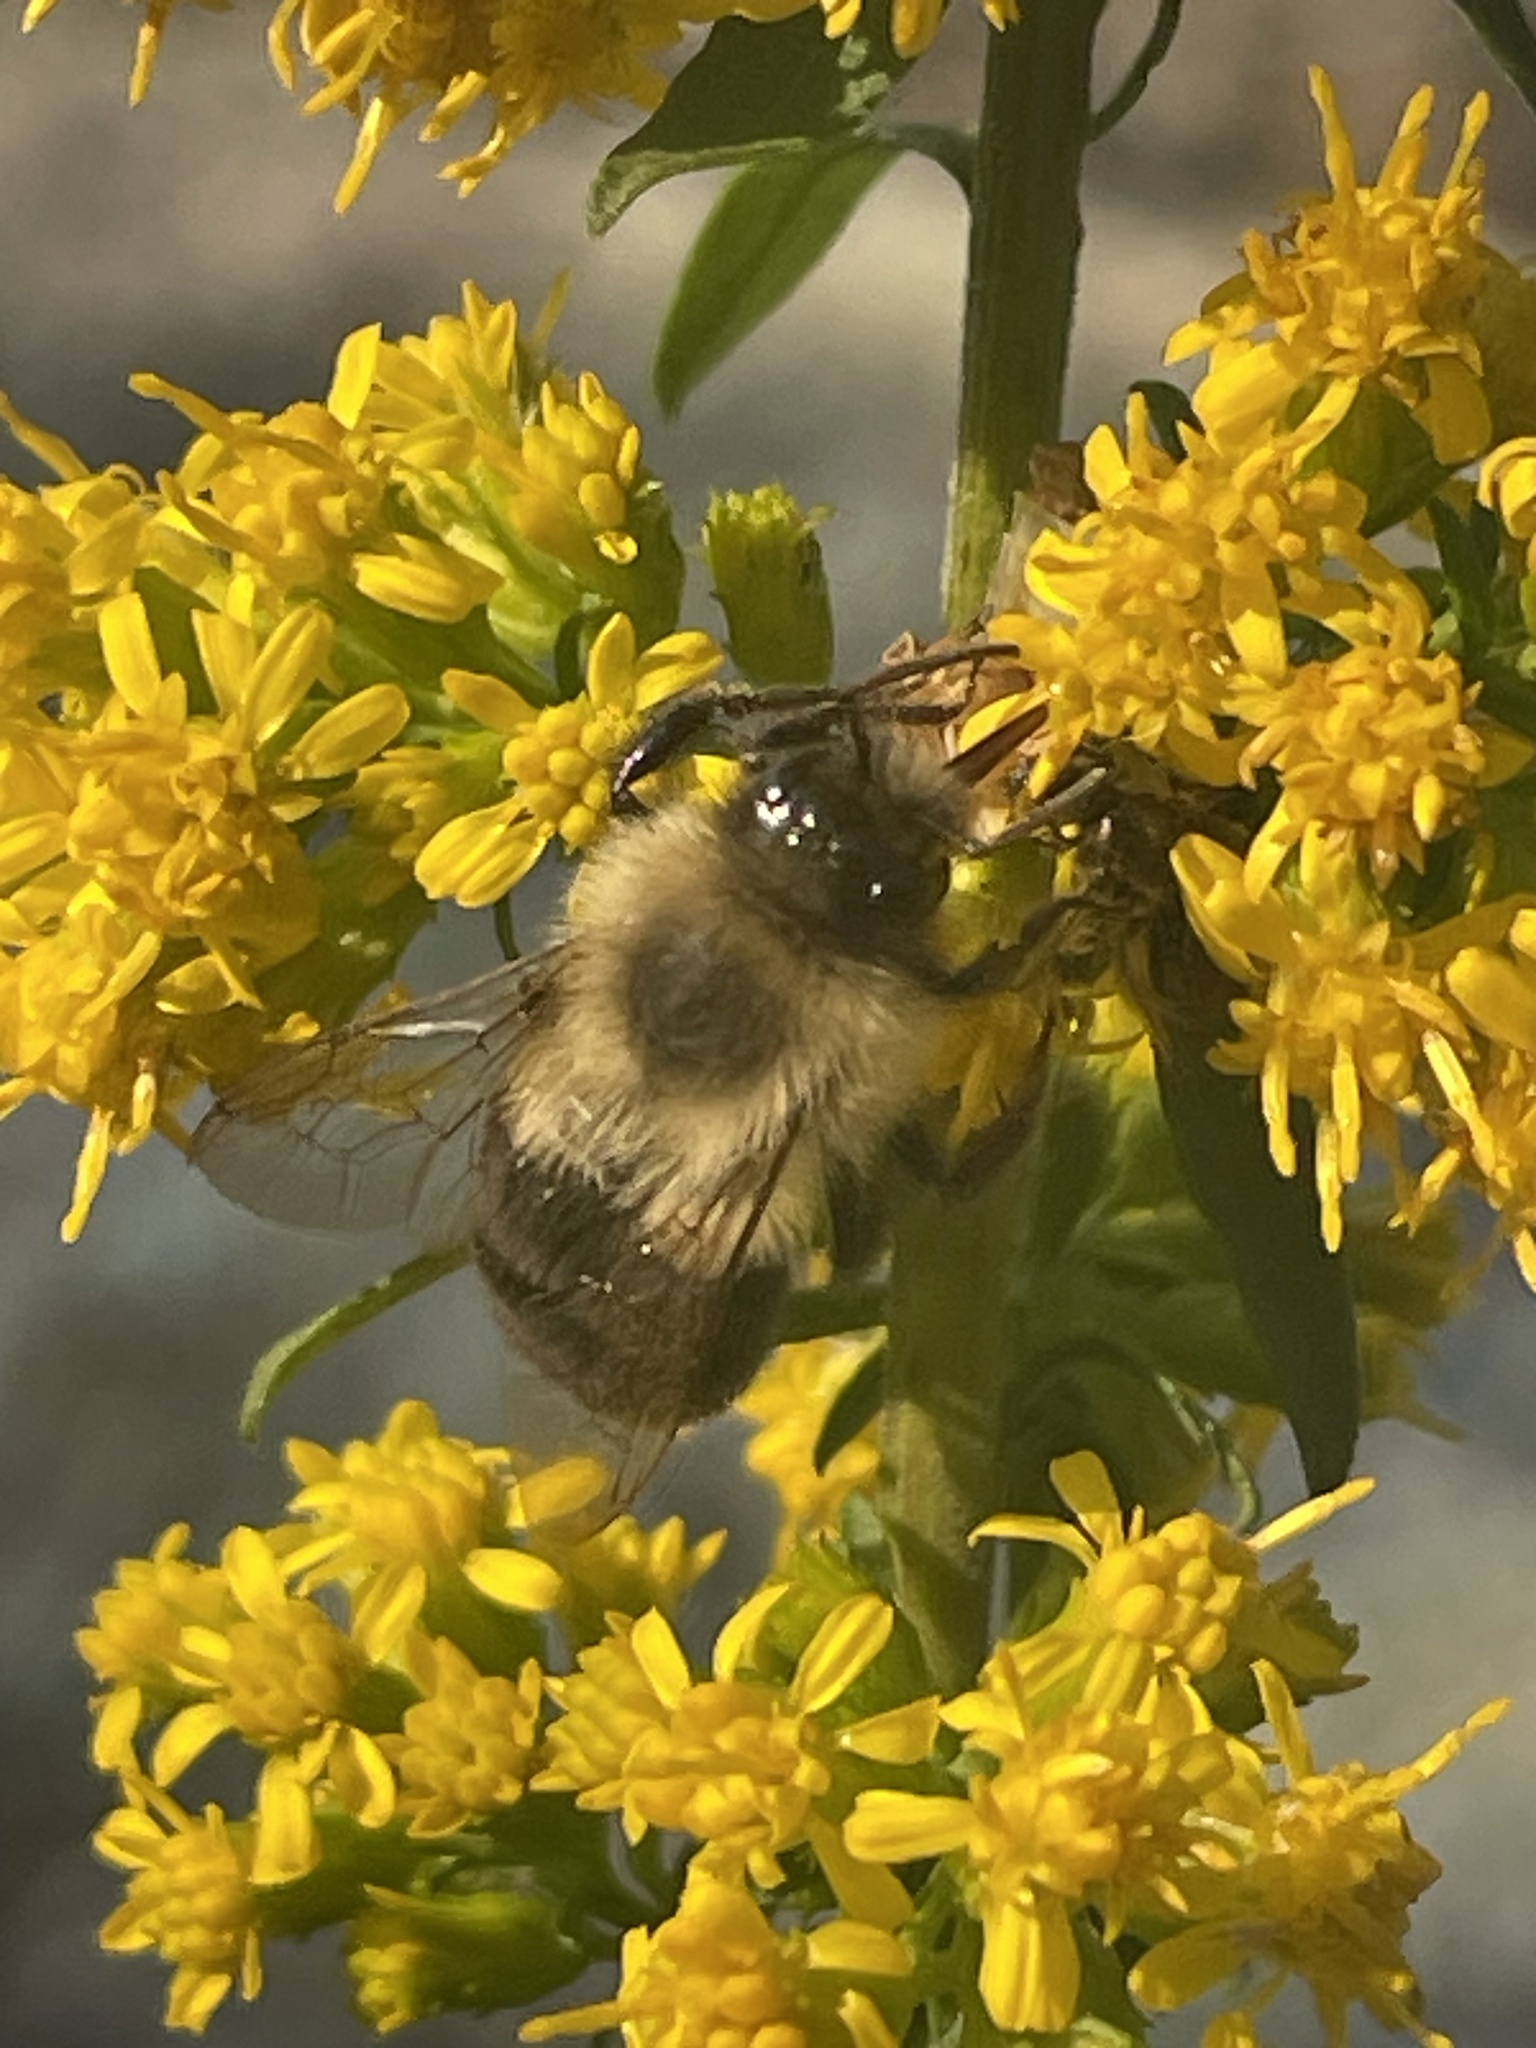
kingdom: Animalia
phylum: Arthropoda
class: Insecta
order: Hymenoptera
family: Apidae
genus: Bombus
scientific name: Bombus impatiens
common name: Common eastern bumble bee
